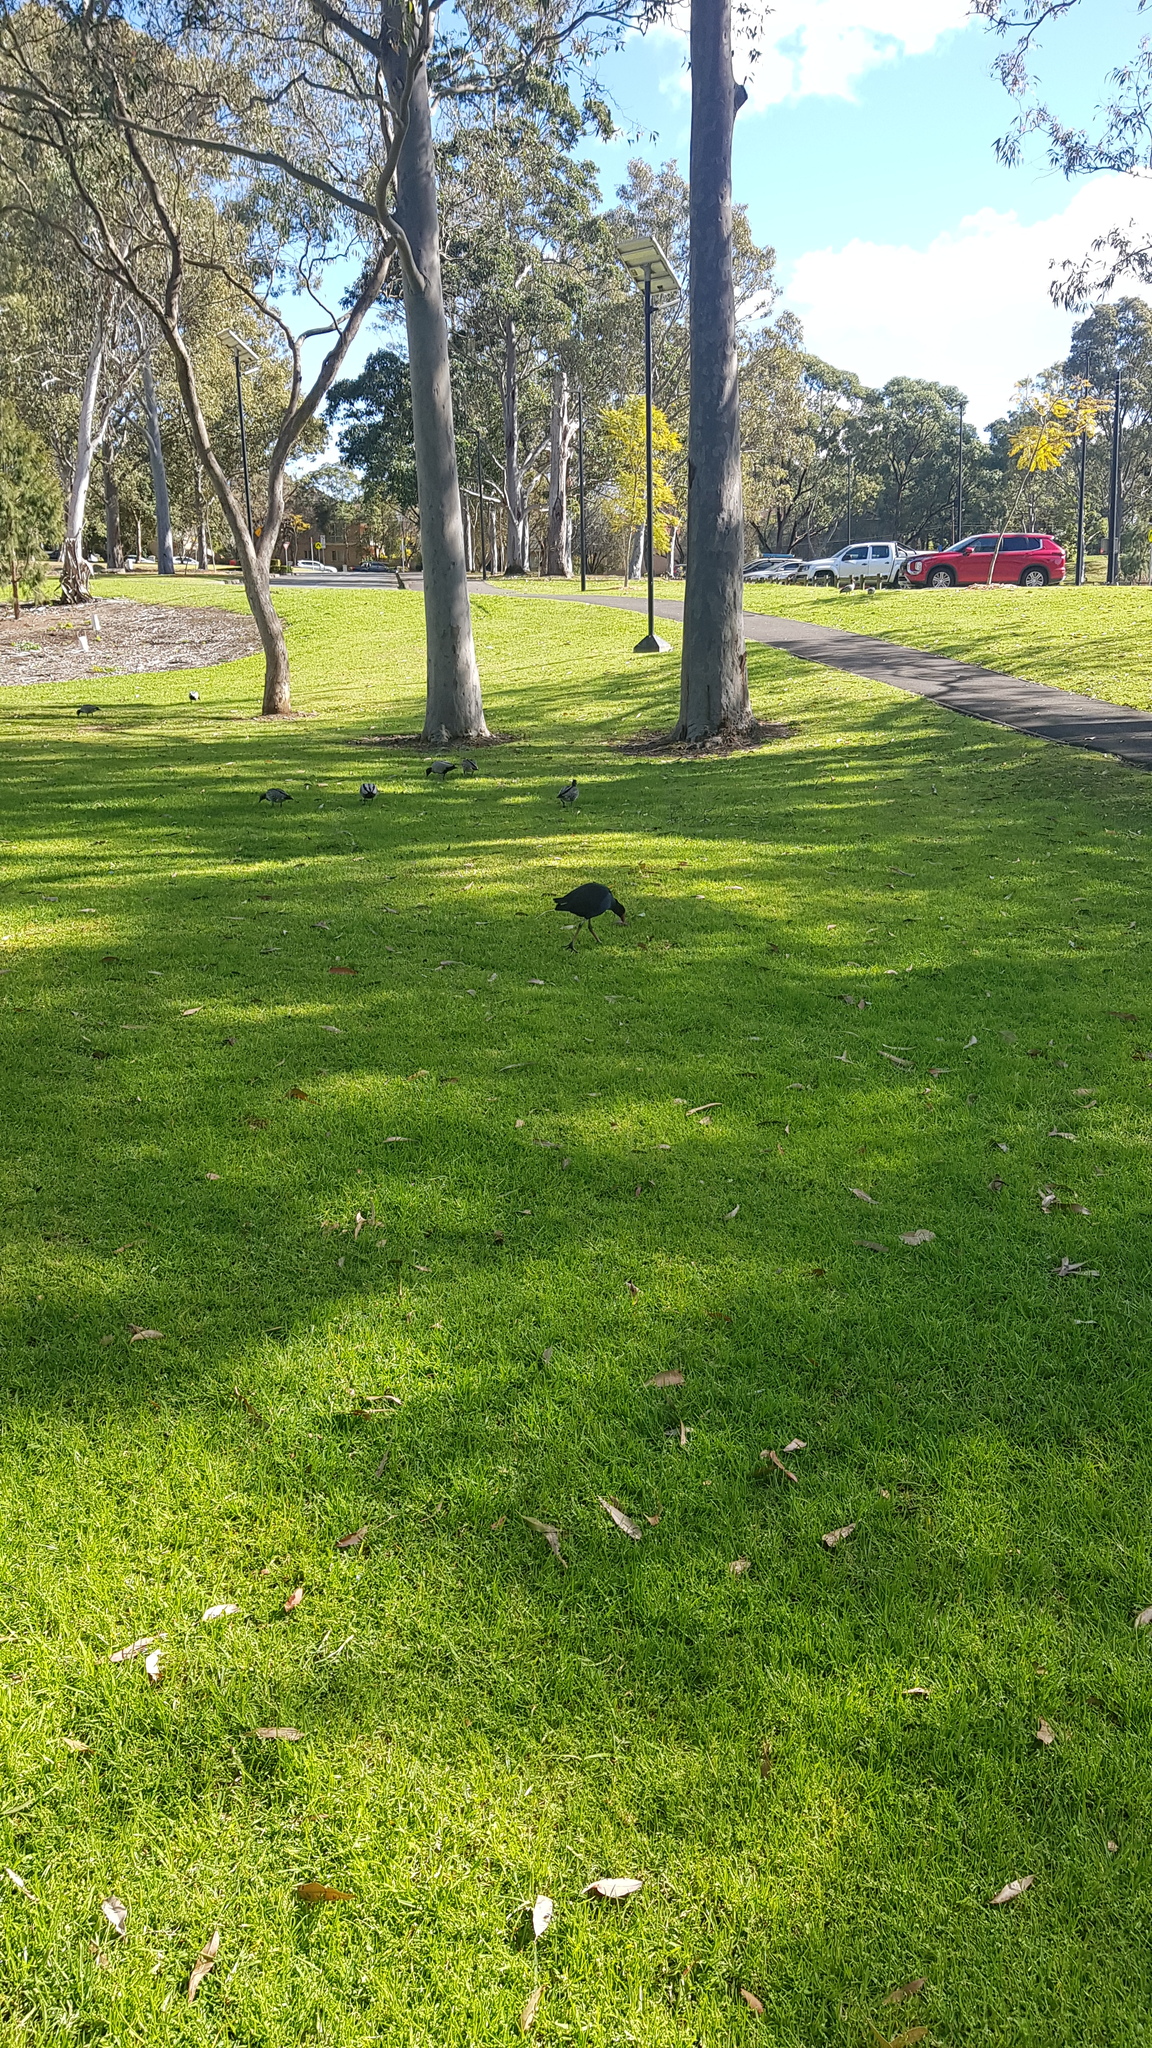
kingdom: Animalia
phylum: Chordata
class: Aves
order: Gruiformes
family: Rallidae
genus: Porphyrio
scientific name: Porphyrio melanotus
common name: Australasian swamphen
